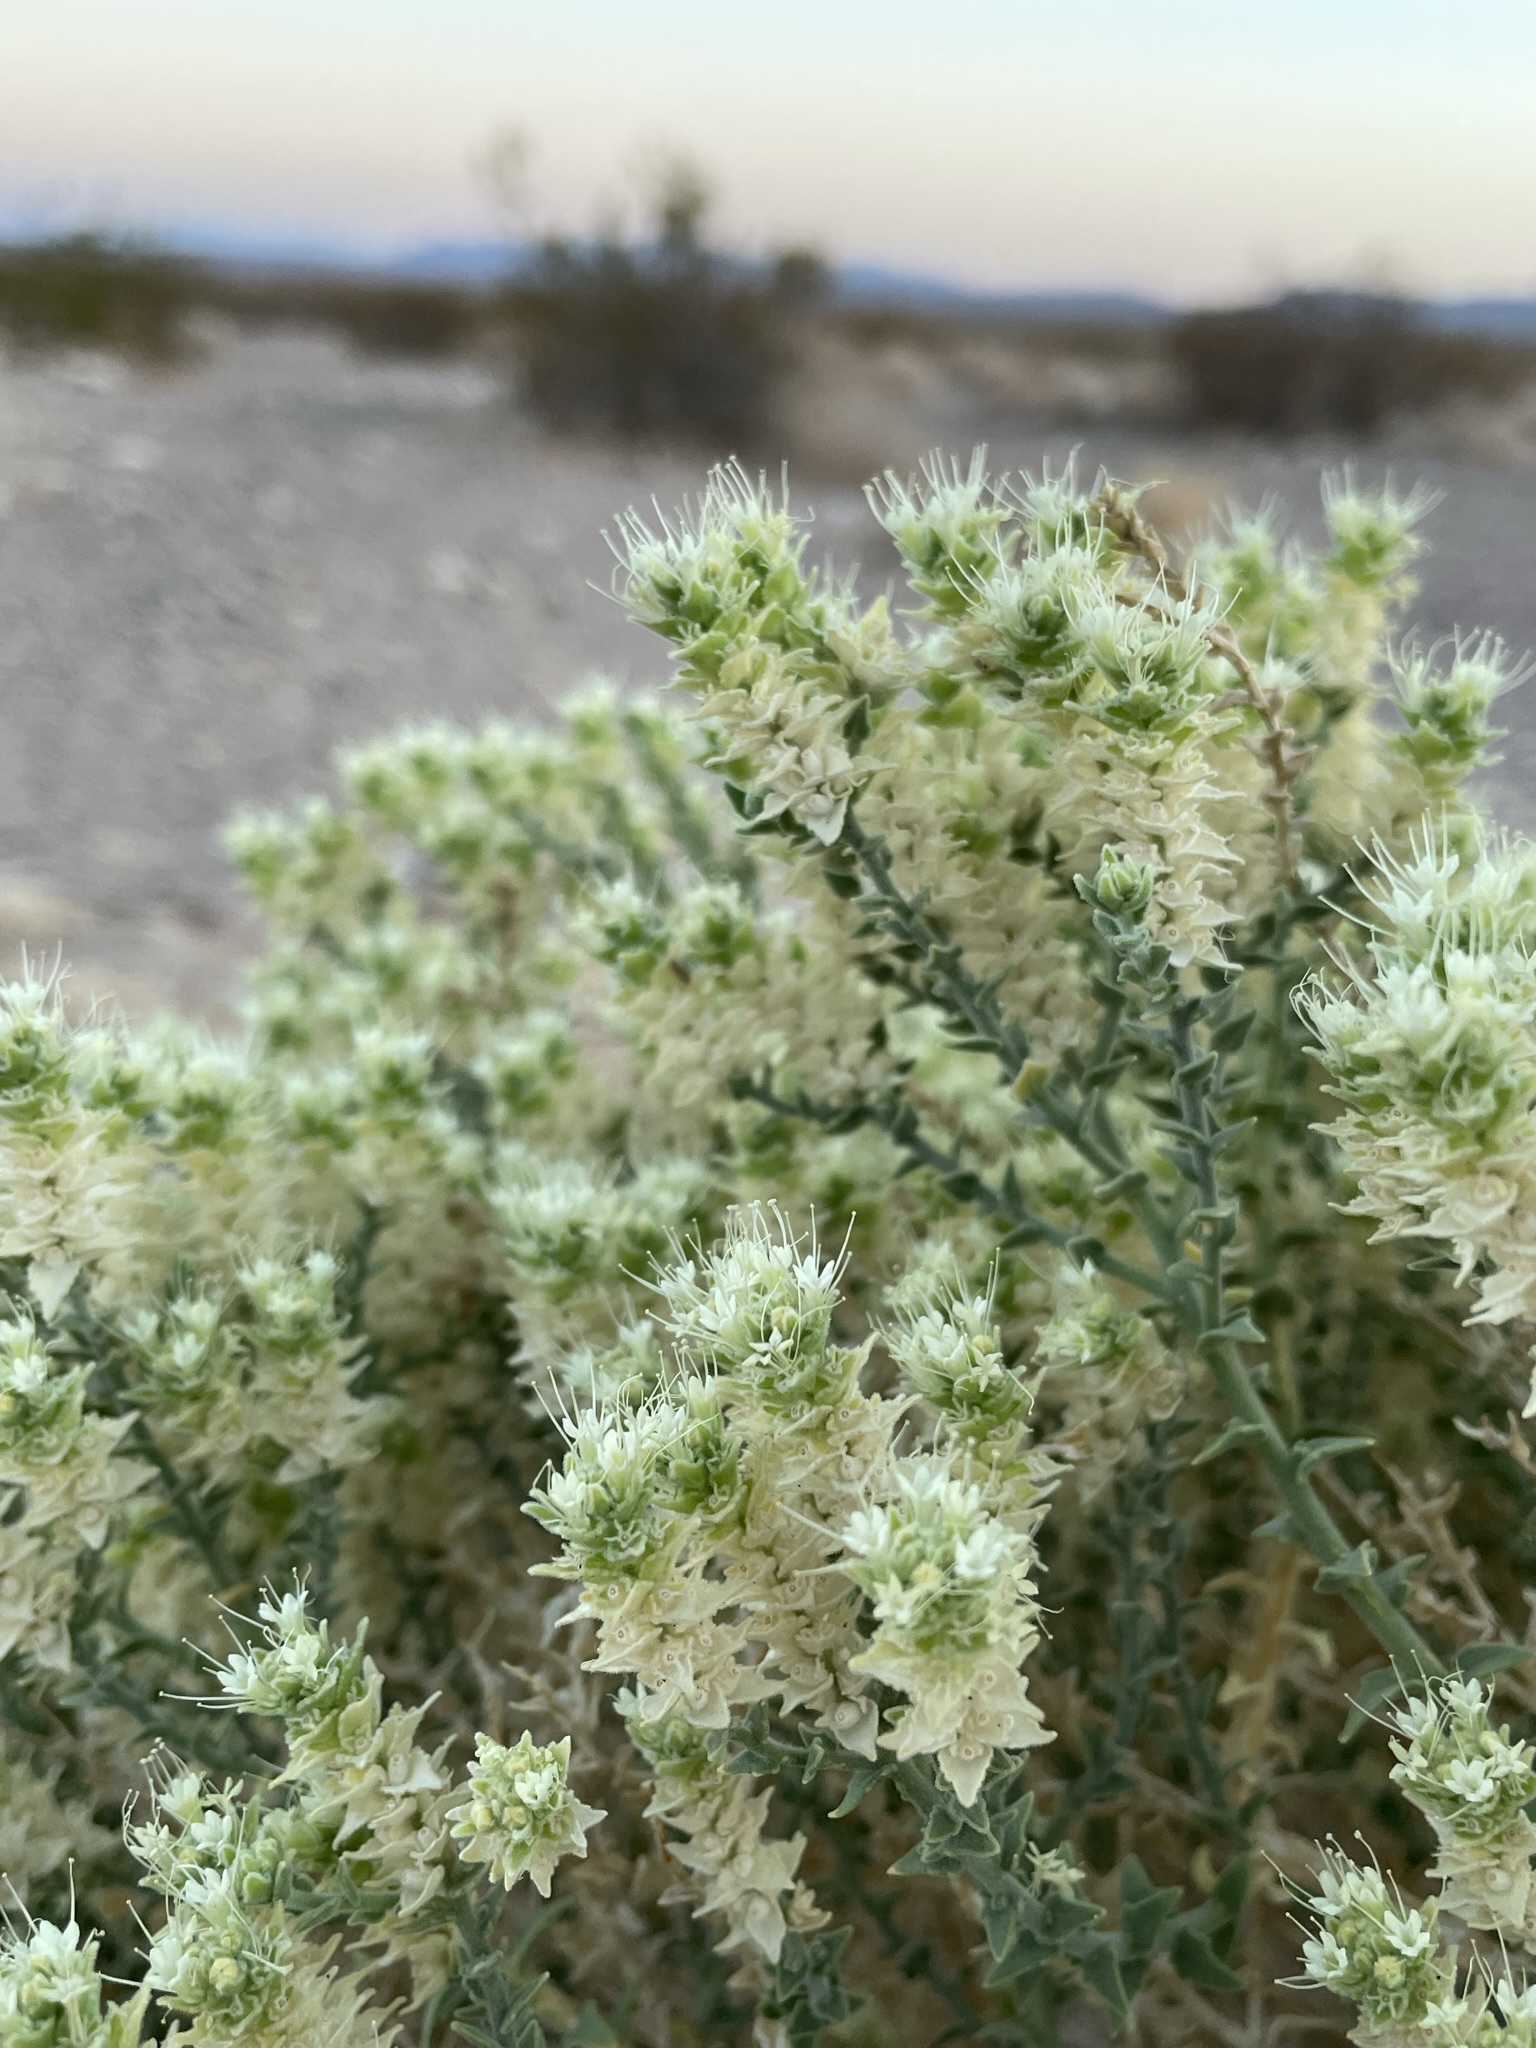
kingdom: Plantae
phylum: Tracheophyta
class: Magnoliopsida
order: Cornales
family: Loasaceae
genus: Petalonyx
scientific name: Petalonyx thurberi
